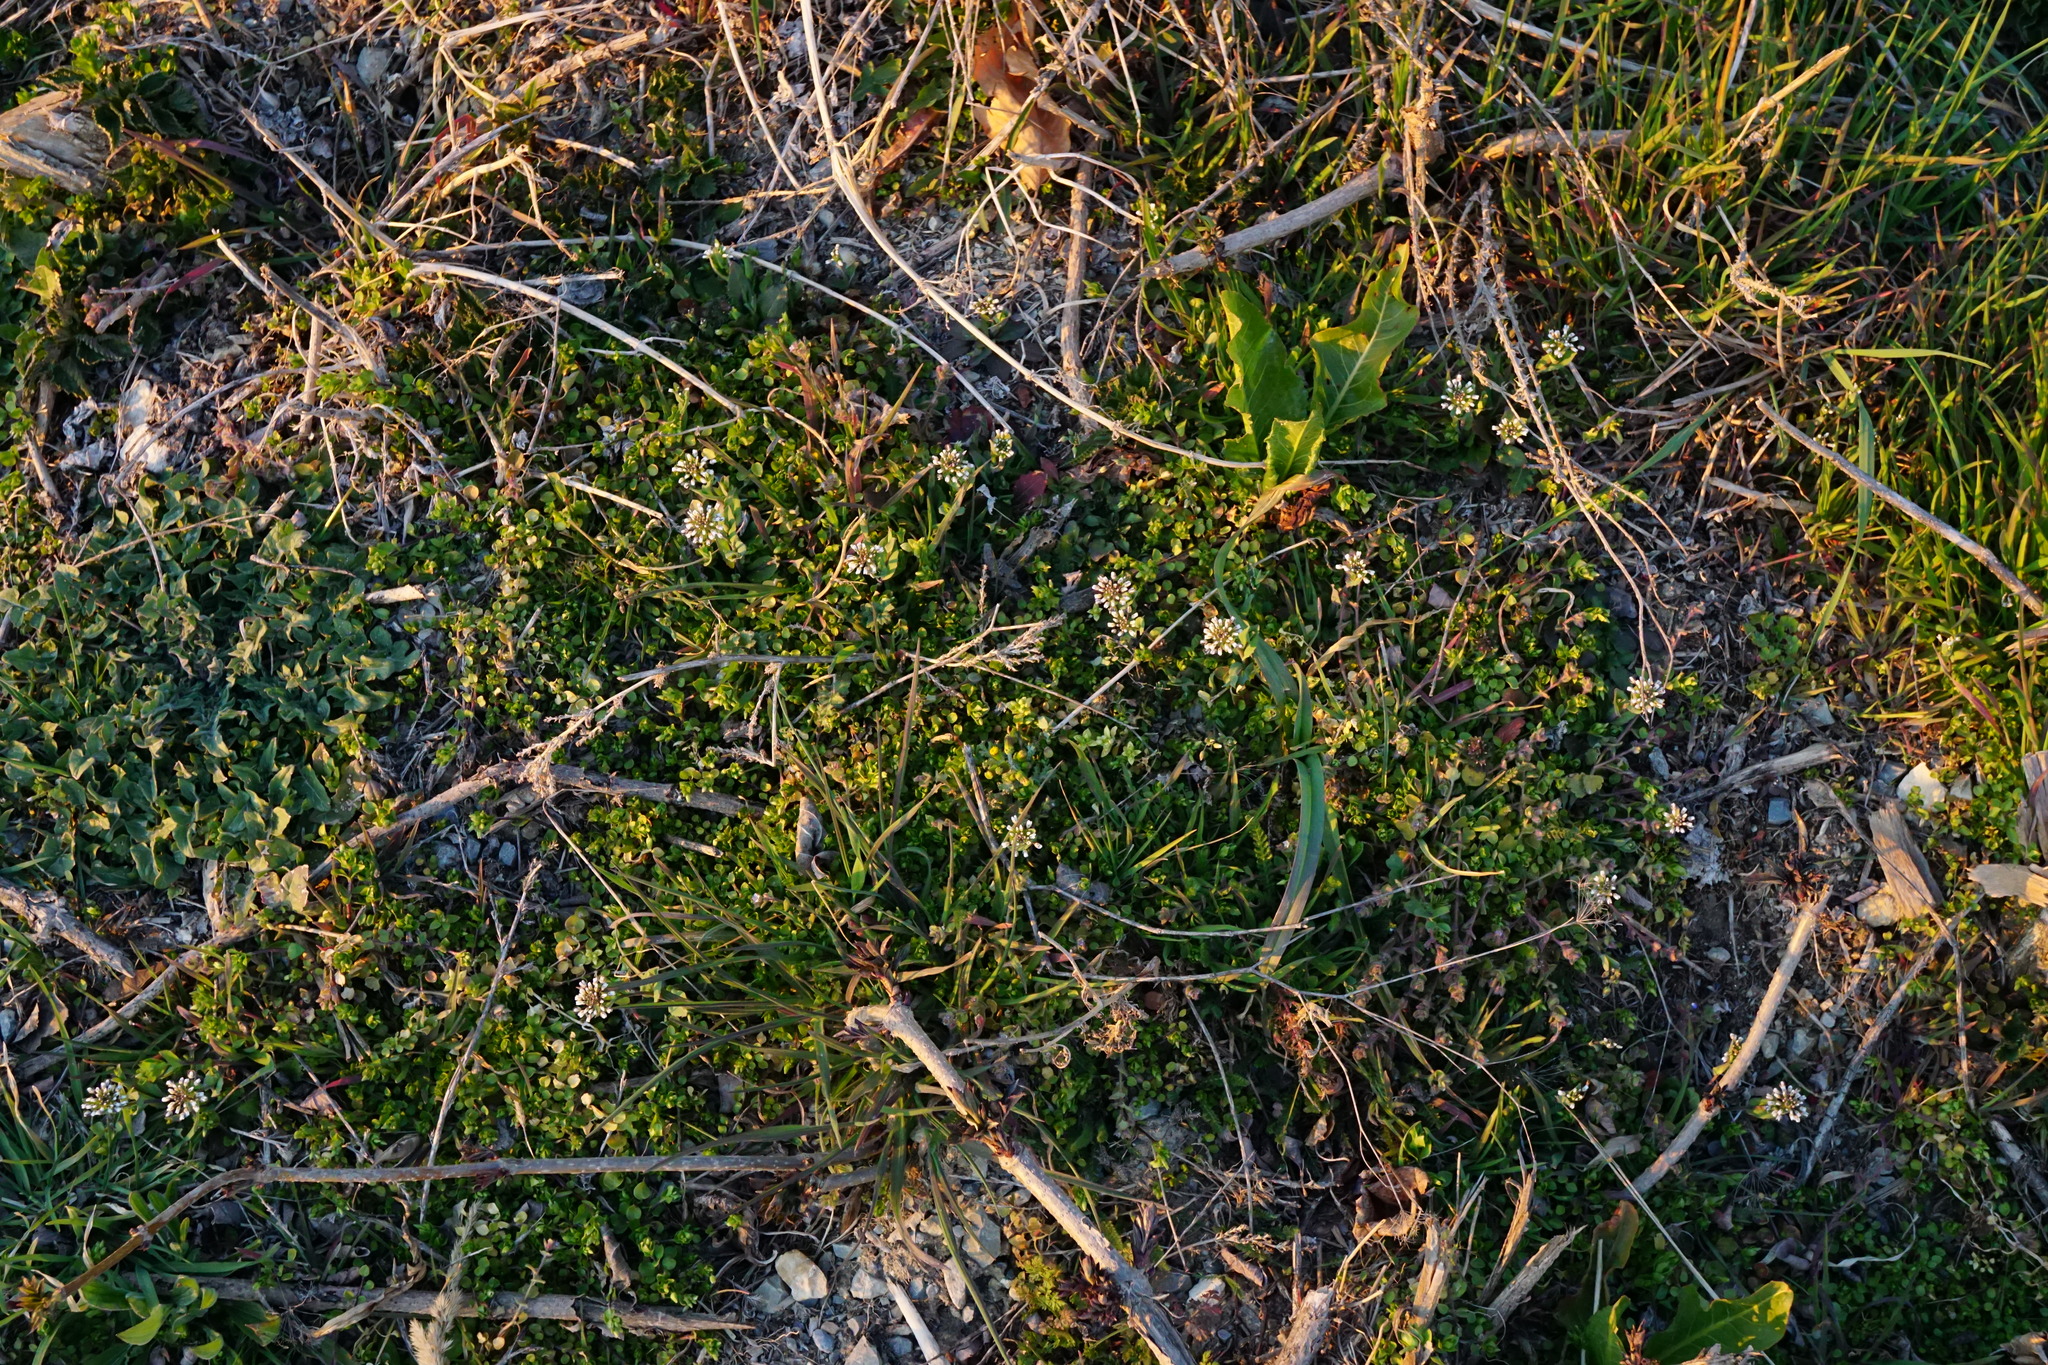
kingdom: Plantae
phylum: Tracheophyta
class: Magnoliopsida
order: Brassicales
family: Brassicaceae
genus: Noccaea
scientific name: Noccaea perfoliata
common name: Perfoliate pennycress
